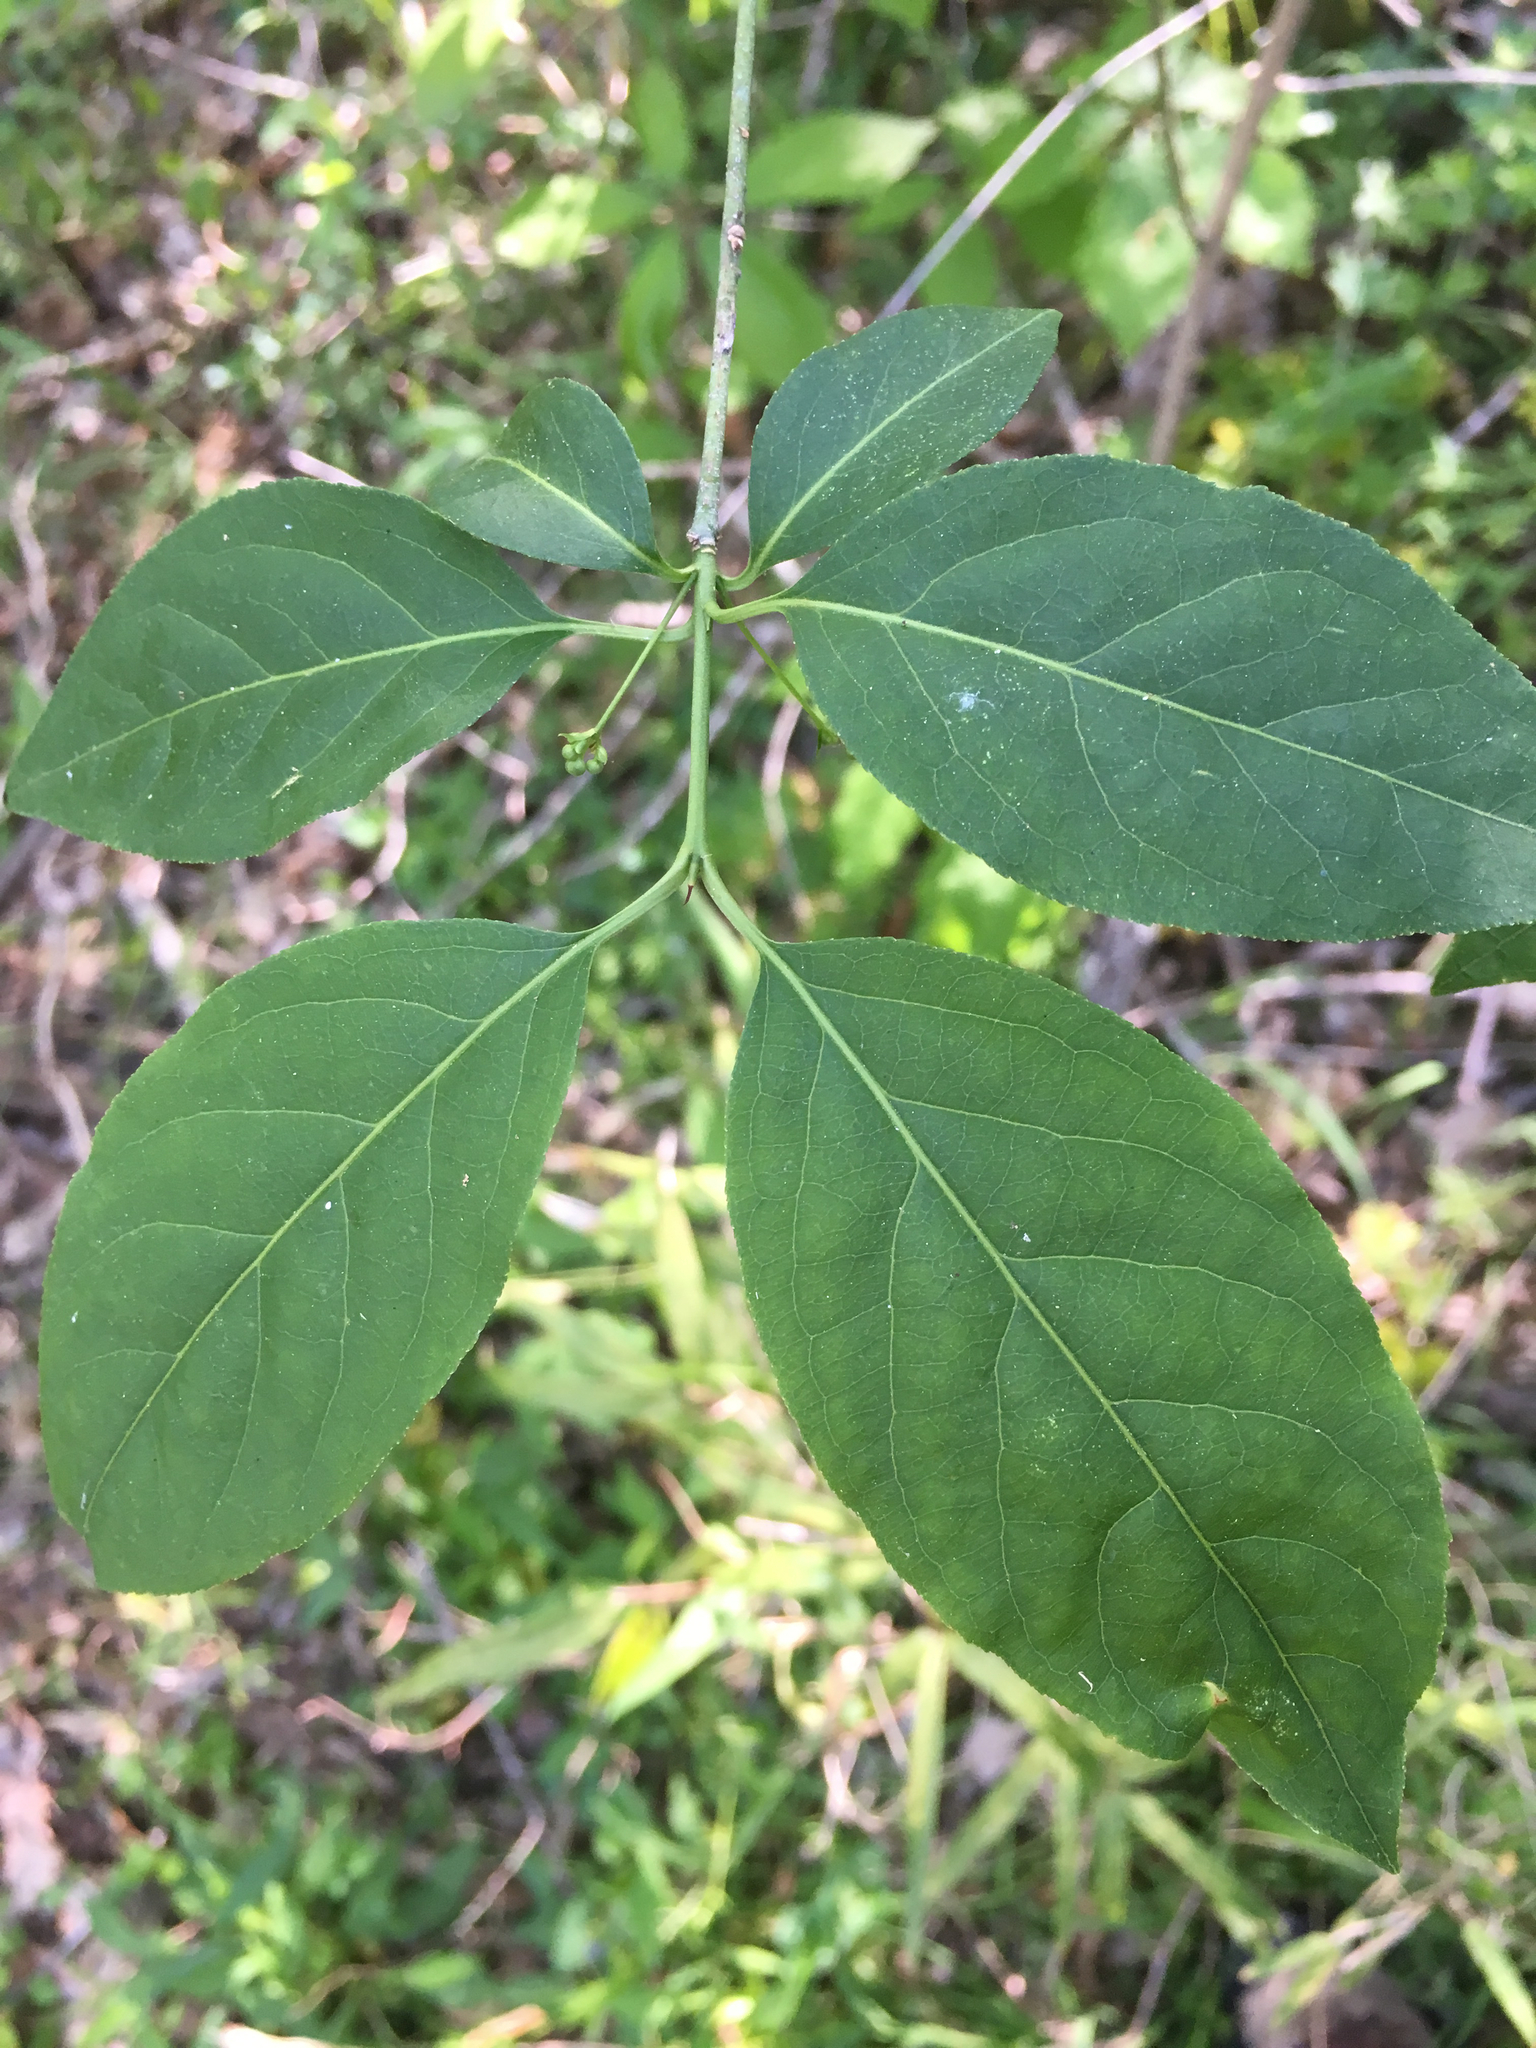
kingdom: Plantae
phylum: Tracheophyta
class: Magnoliopsida
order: Celastrales
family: Celastraceae
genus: Euonymus
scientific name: Euonymus atropurpureus
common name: Eastern wahoo
